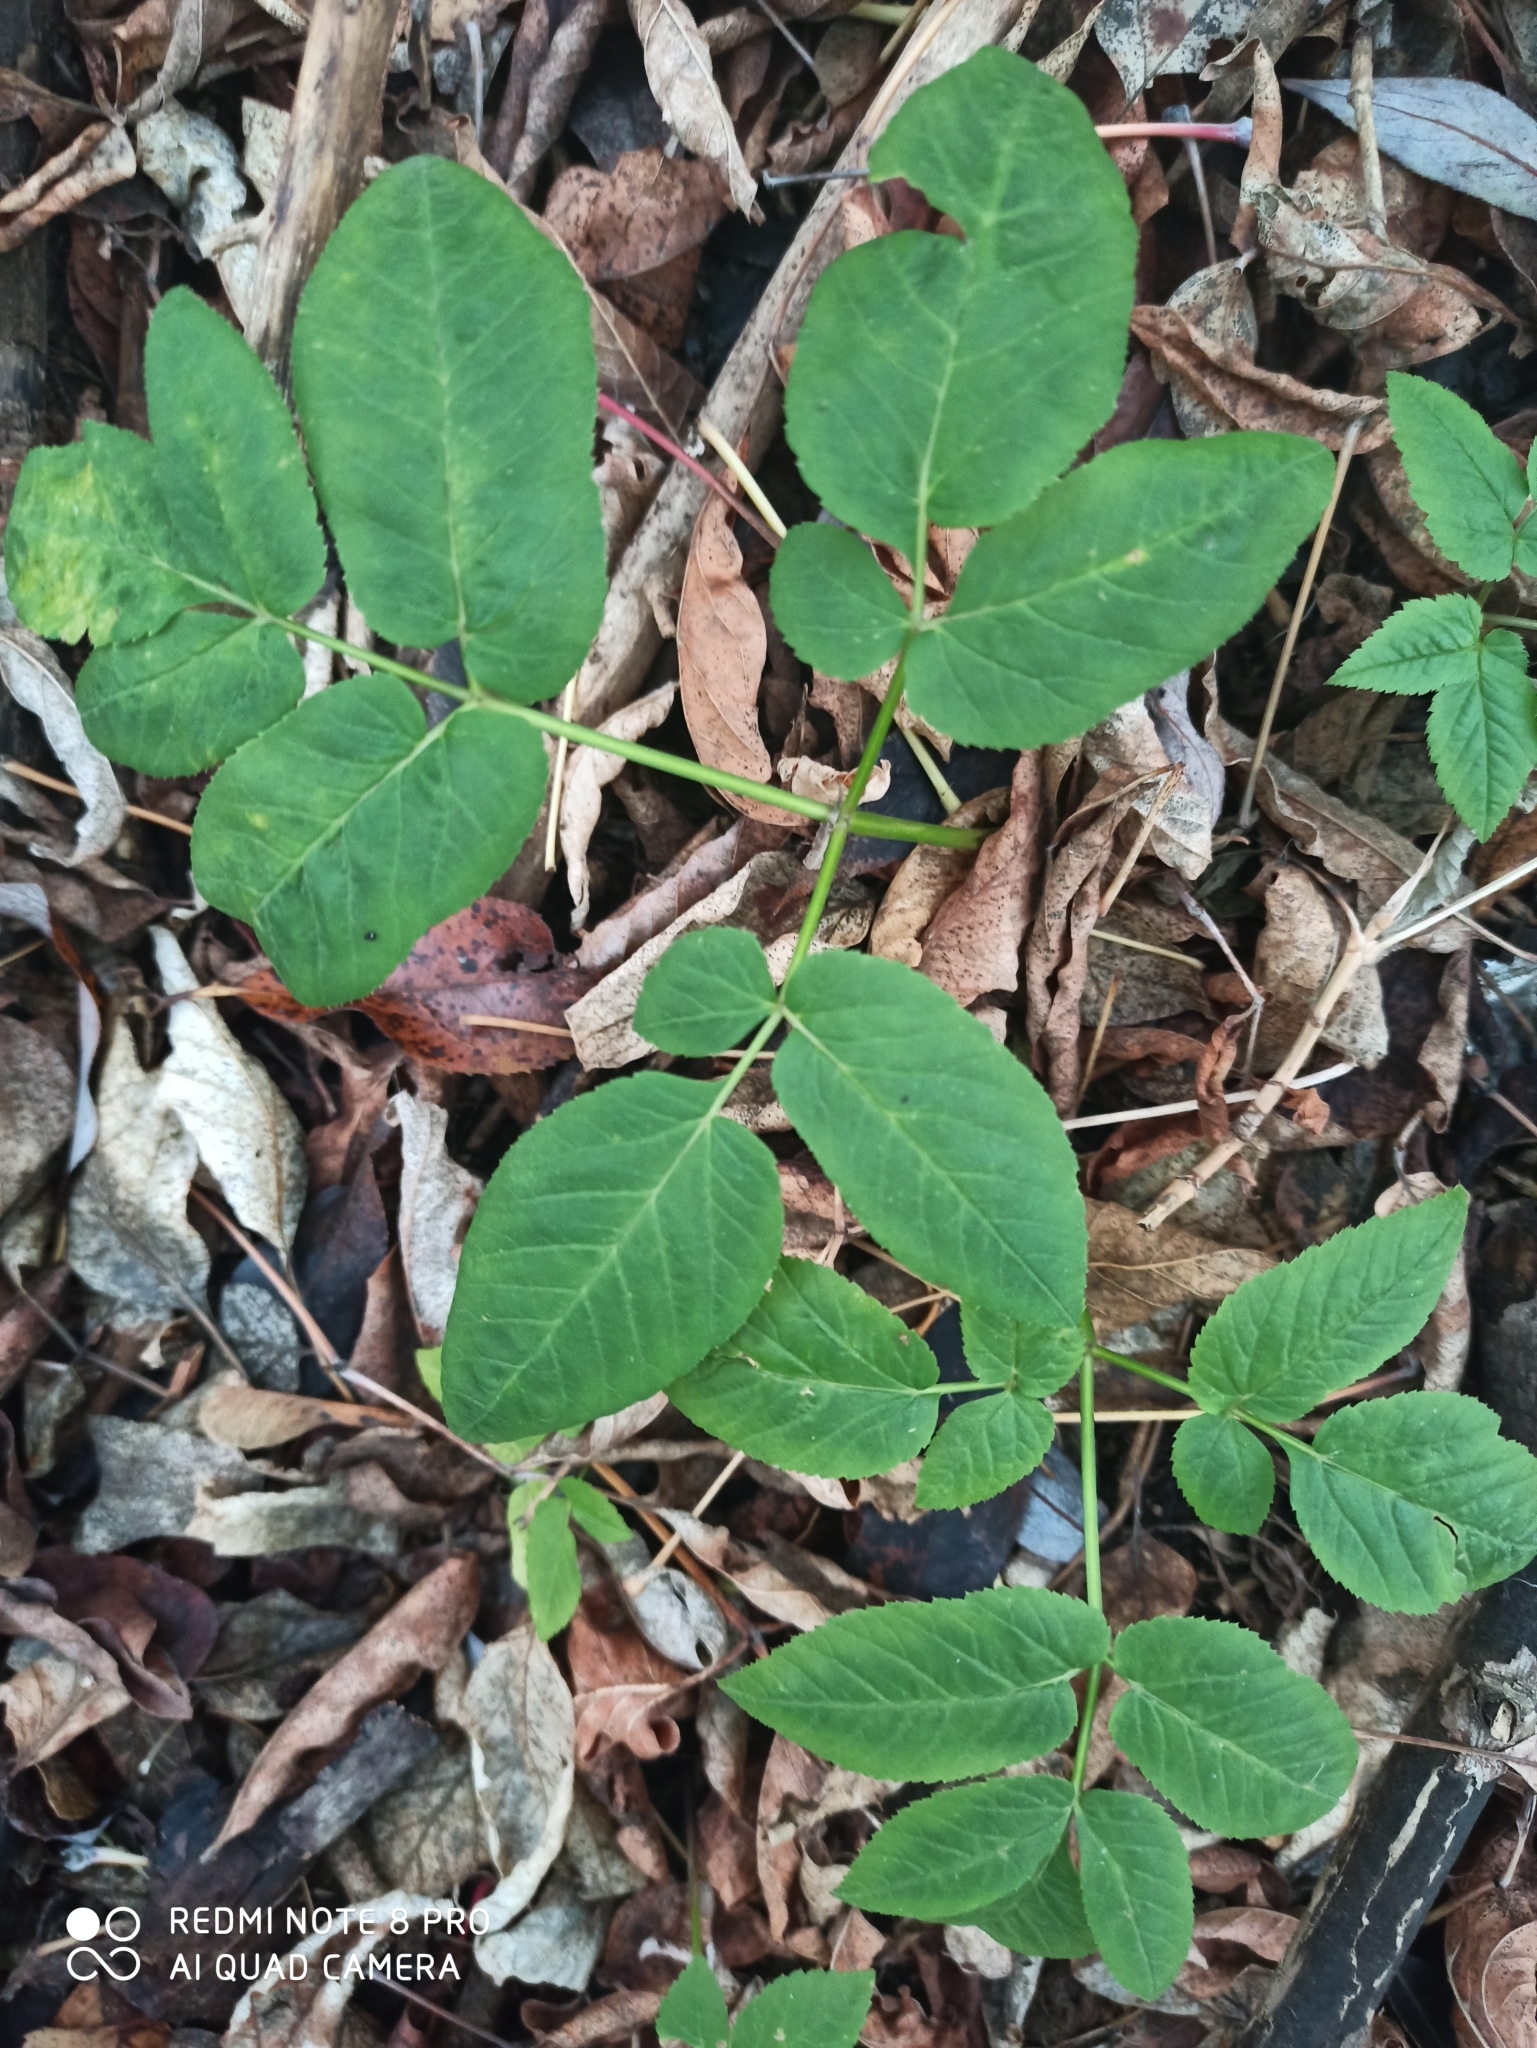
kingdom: Plantae
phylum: Tracheophyta
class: Magnoliopsida
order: Apiales
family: Apiaceae
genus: Aegopodium
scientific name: Aegopodium podagraria
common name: Ground-elder
